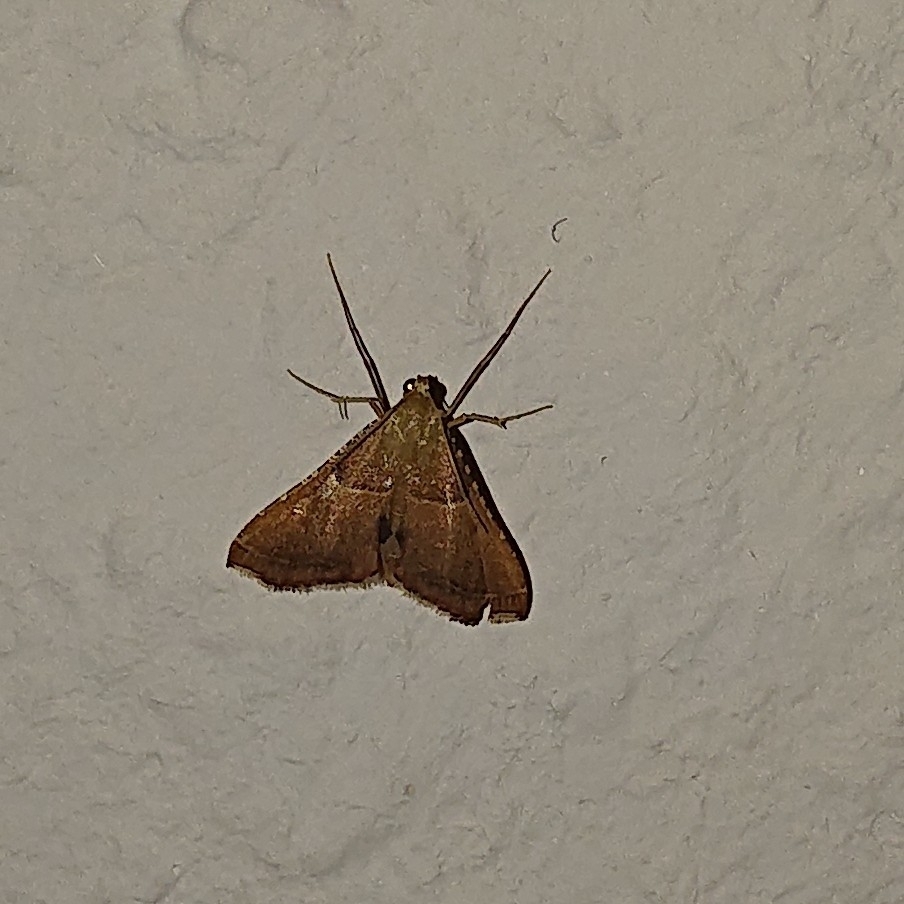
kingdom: Animalia
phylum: Arthropoda
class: Insecta
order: Lepidoptera
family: Pyralidae
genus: Endotricha
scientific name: Endotricha flammealis
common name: Rosy tabby
